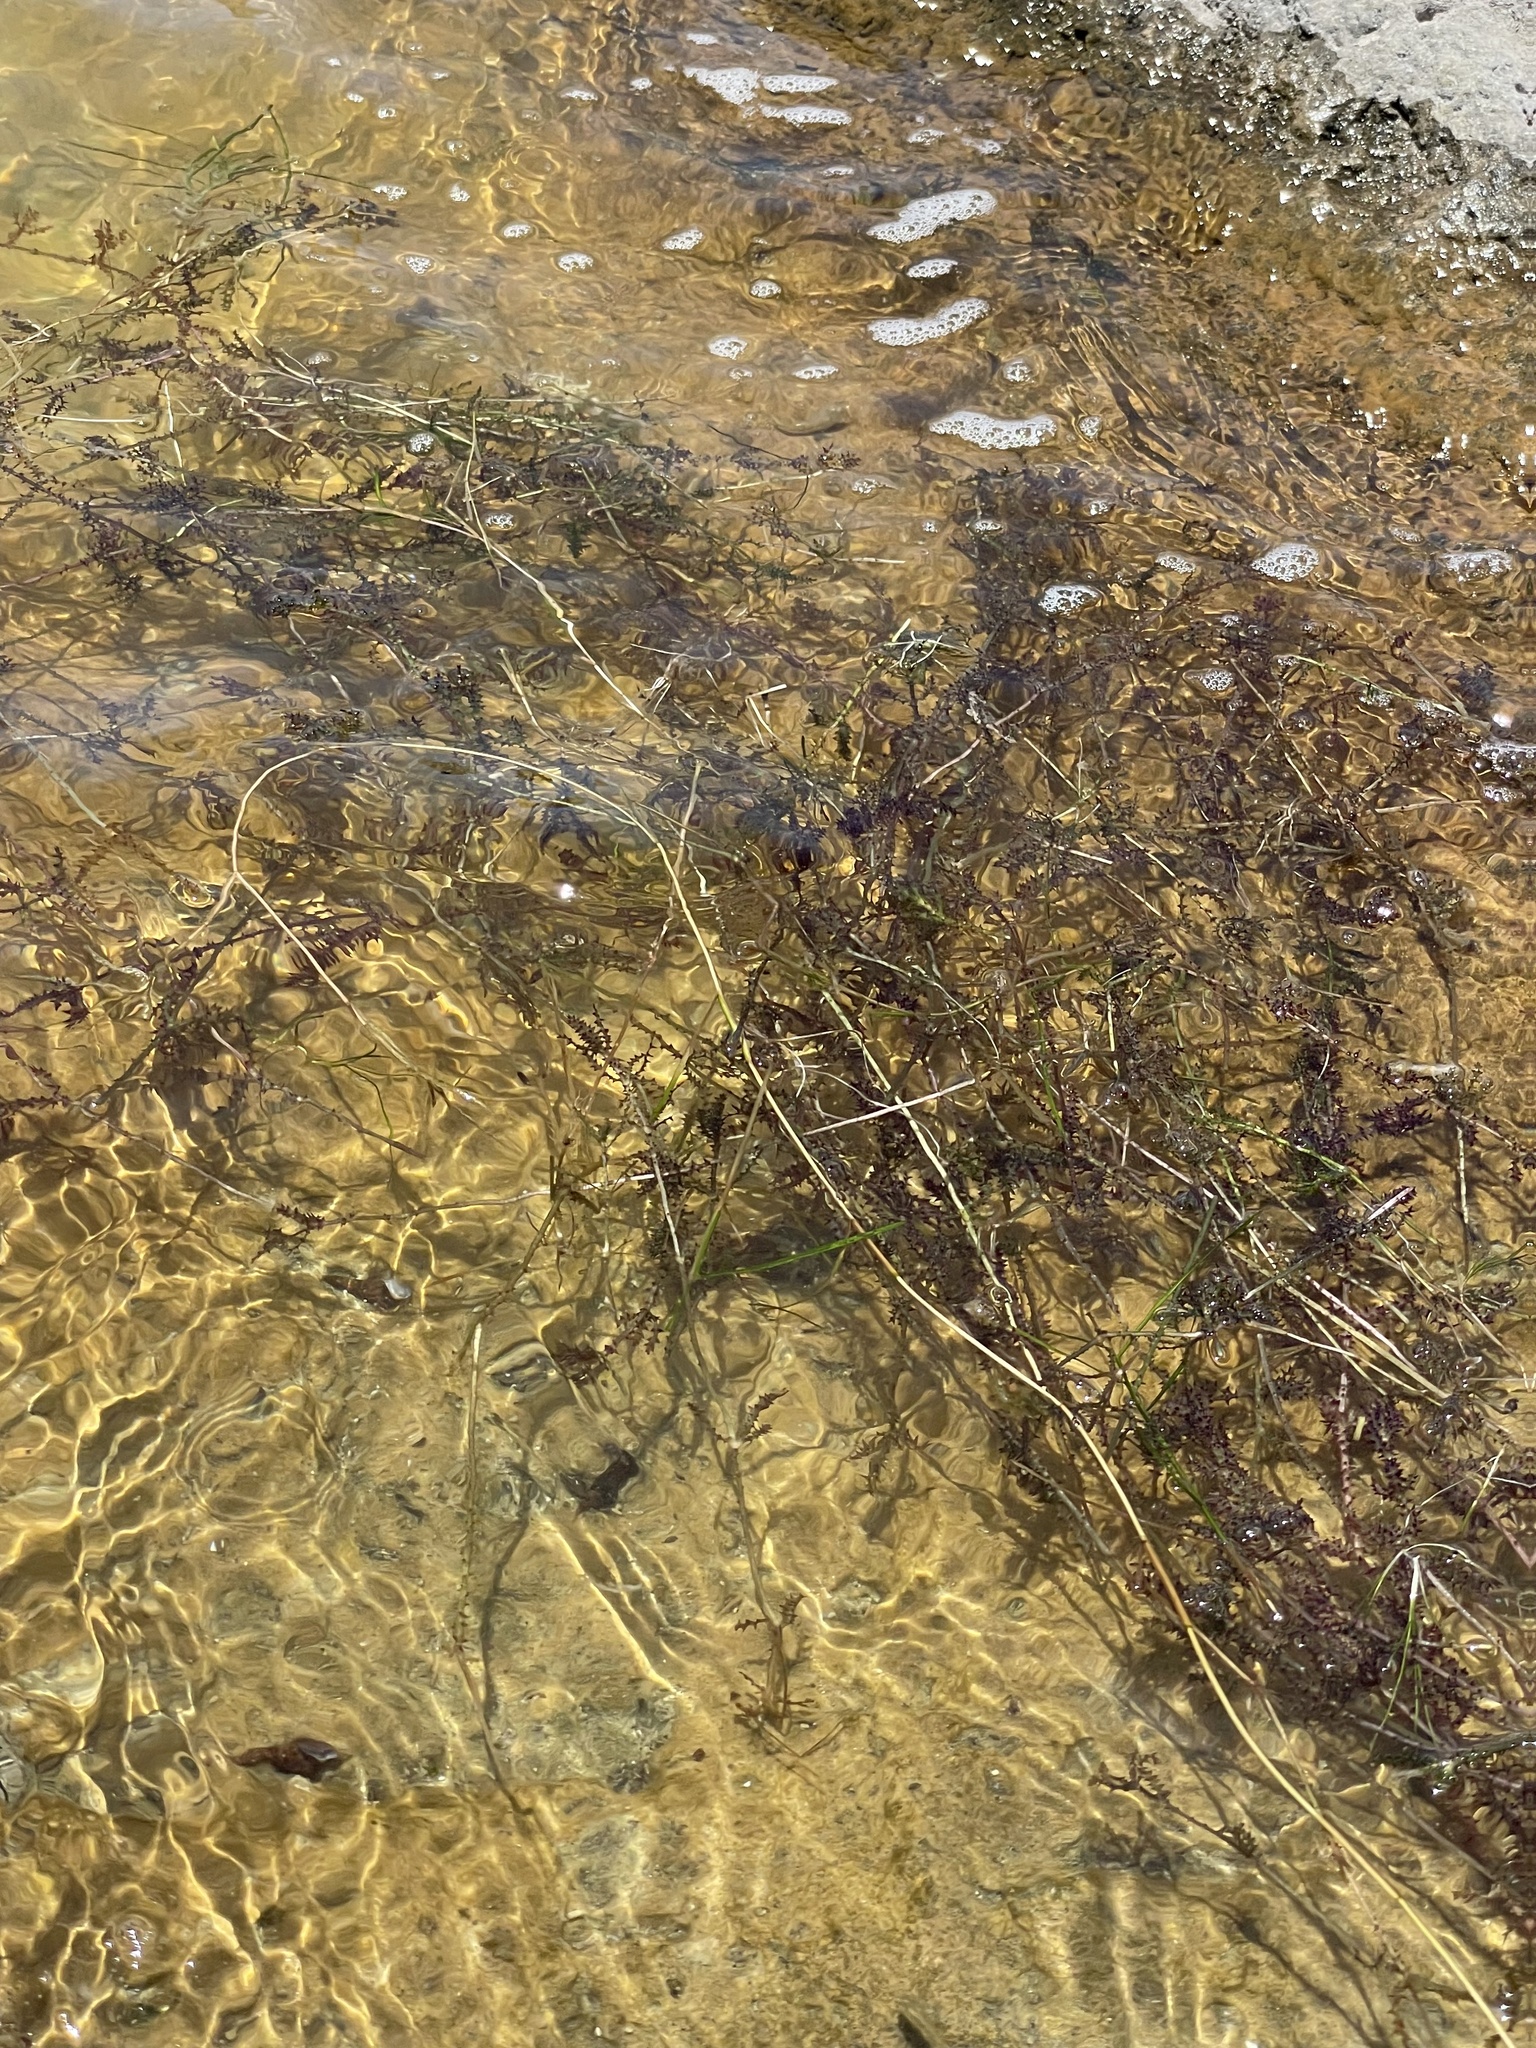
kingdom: Plantae
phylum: Tracheophyta
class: Liliopsida
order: Alismatales
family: Hydrocharitaceae
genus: Najas
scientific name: Najas marina
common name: Holly-leaved naiad
